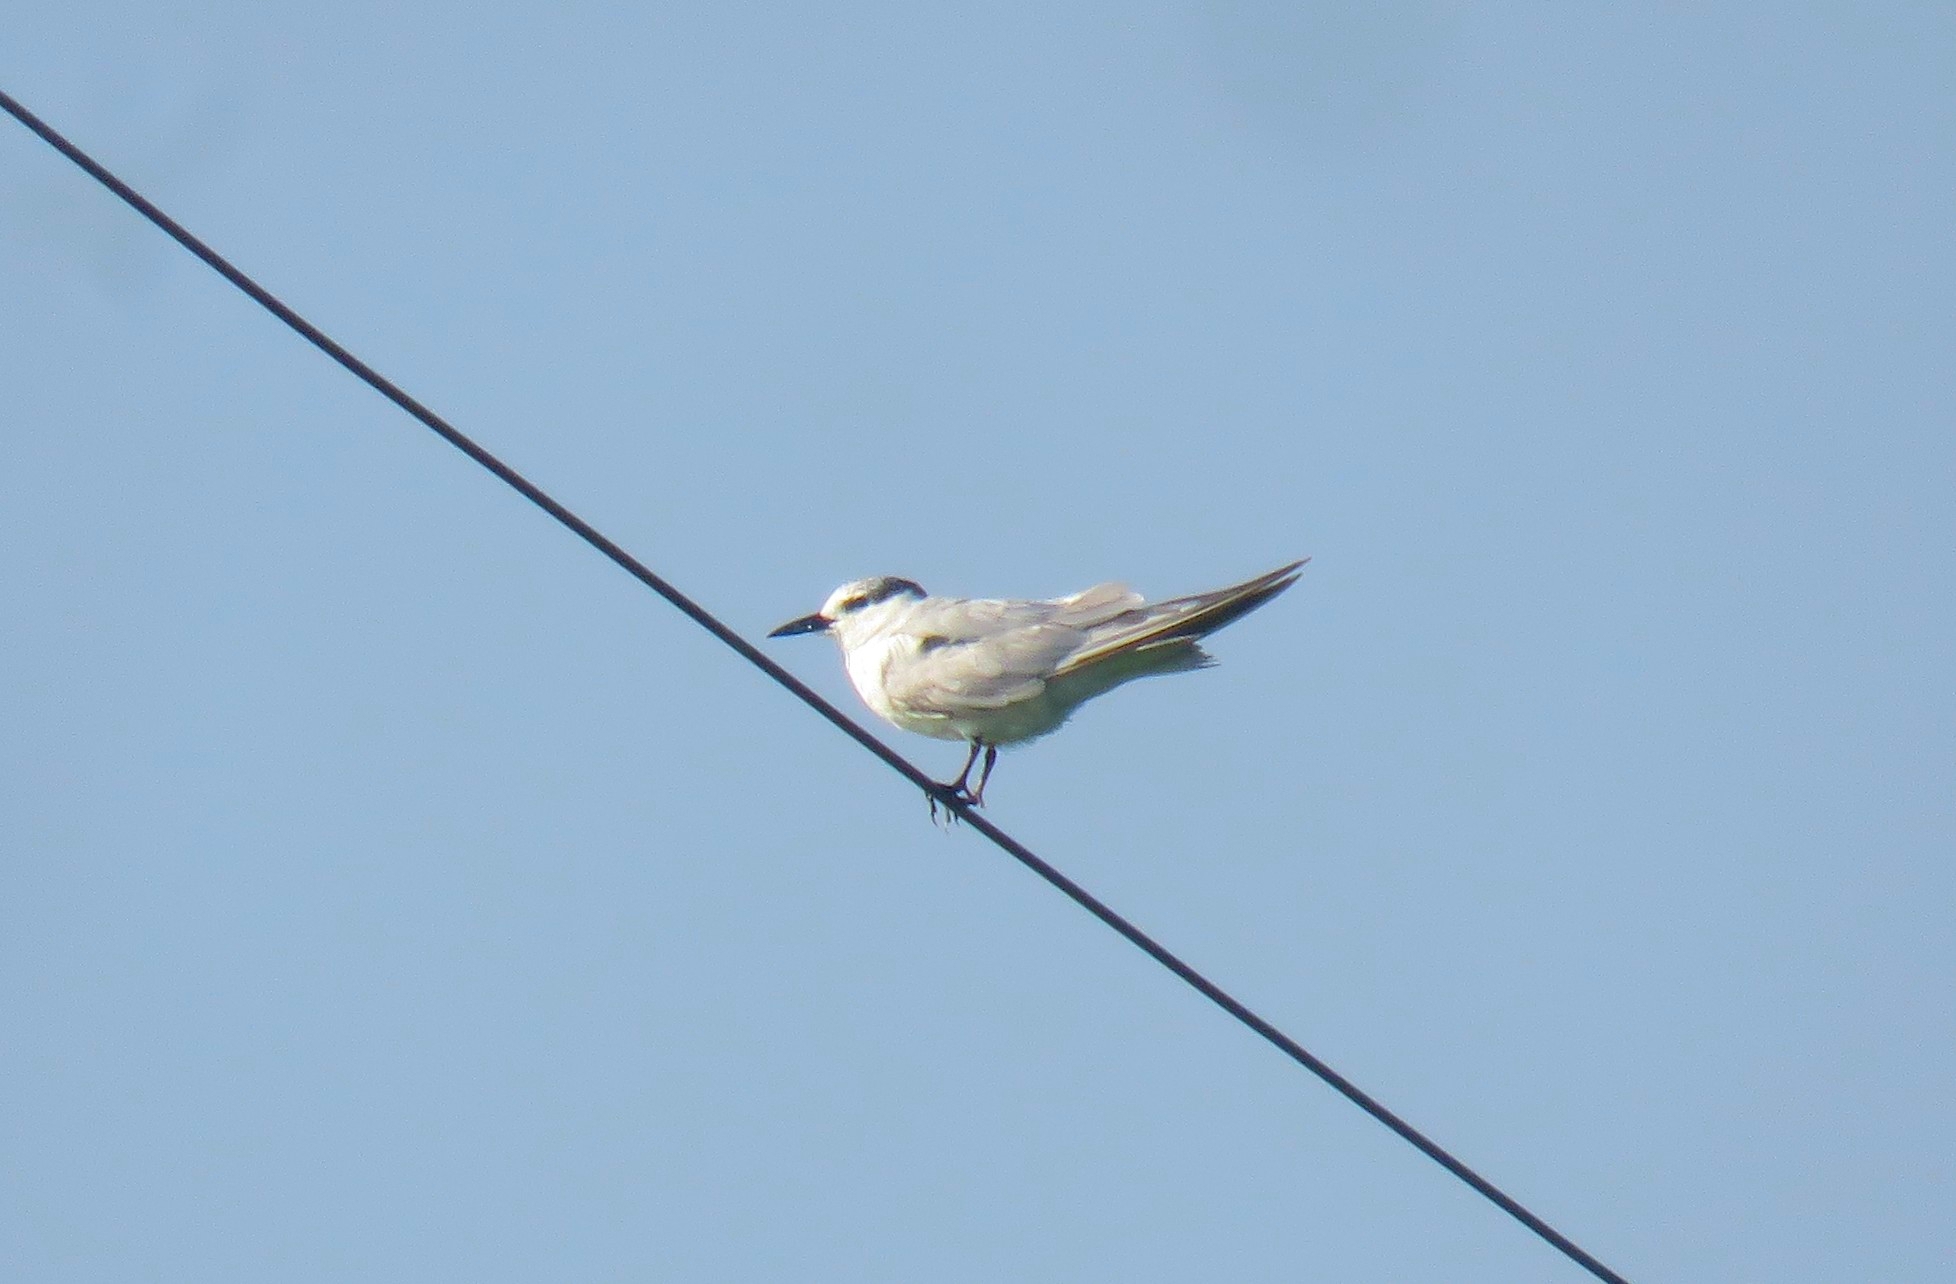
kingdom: Animalia
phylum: Chordata
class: Aves
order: Charadriiformes
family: Laridae
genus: Chlidonias
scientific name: Chlidonias hybrida
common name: Whiskered tern
